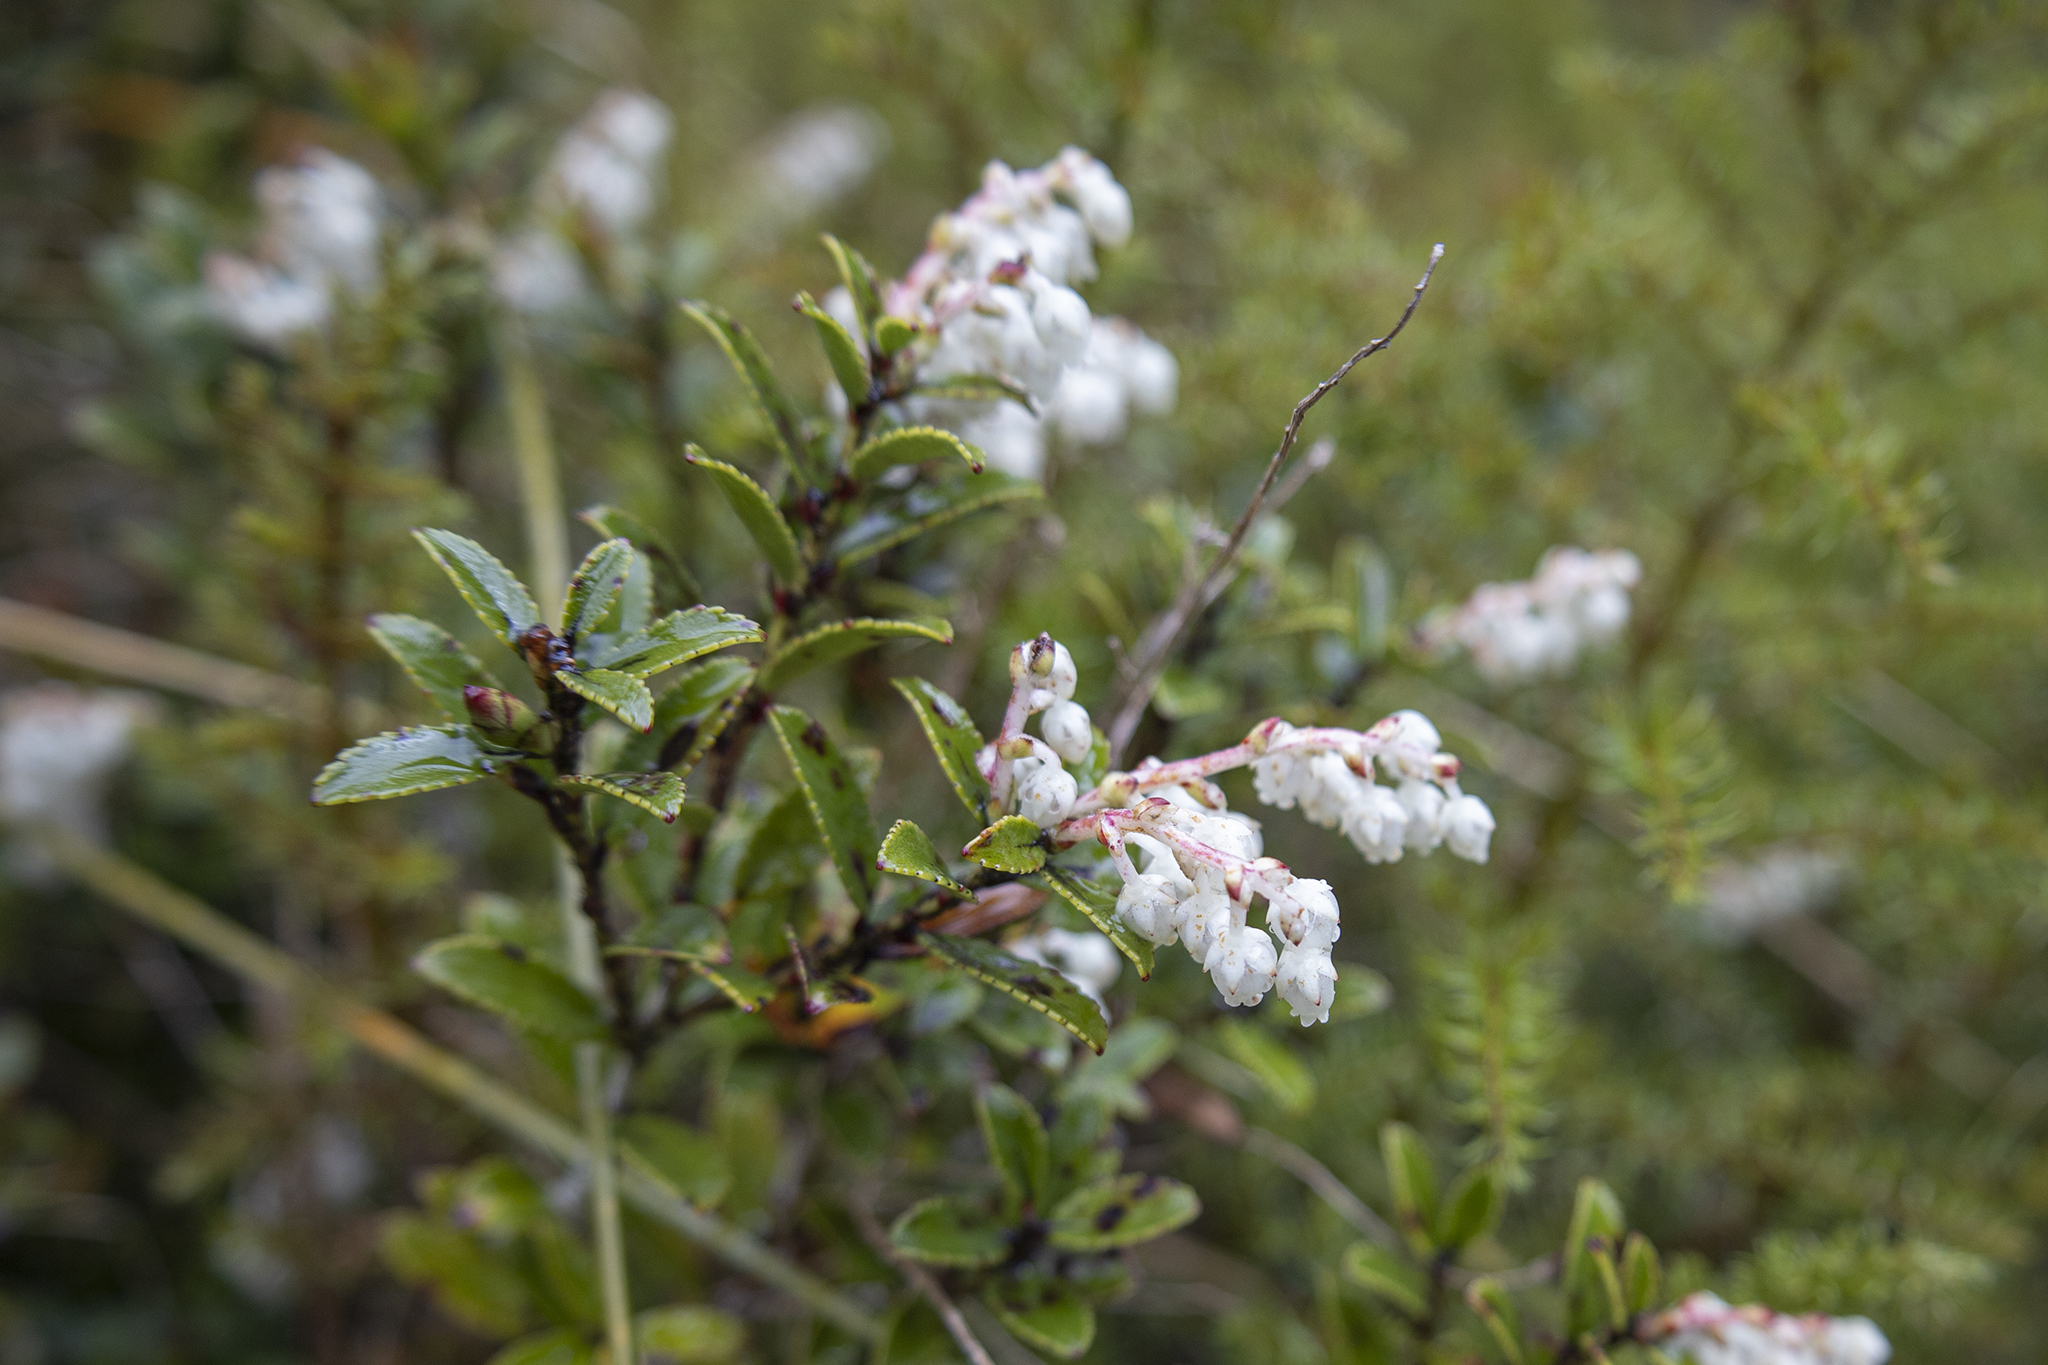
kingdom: Plantae
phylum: Tracheophyta
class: Magnoliopsida
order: Ericales
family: Ericaceae
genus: Gaultheria
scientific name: Gaultheria crassa
